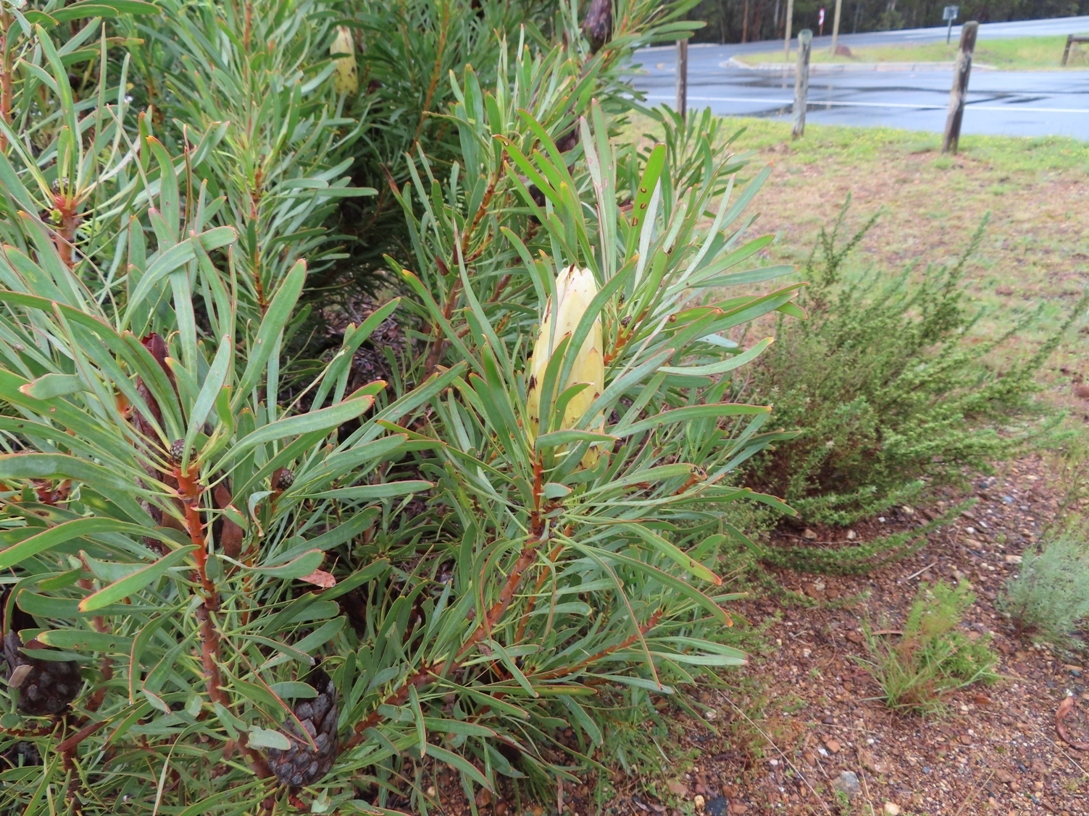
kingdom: Plantae
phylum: Tracheophyta
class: Magnoliopsida
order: Proteales
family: Proteaceae
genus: Protea
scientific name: Protea repens
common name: Sugarbush
